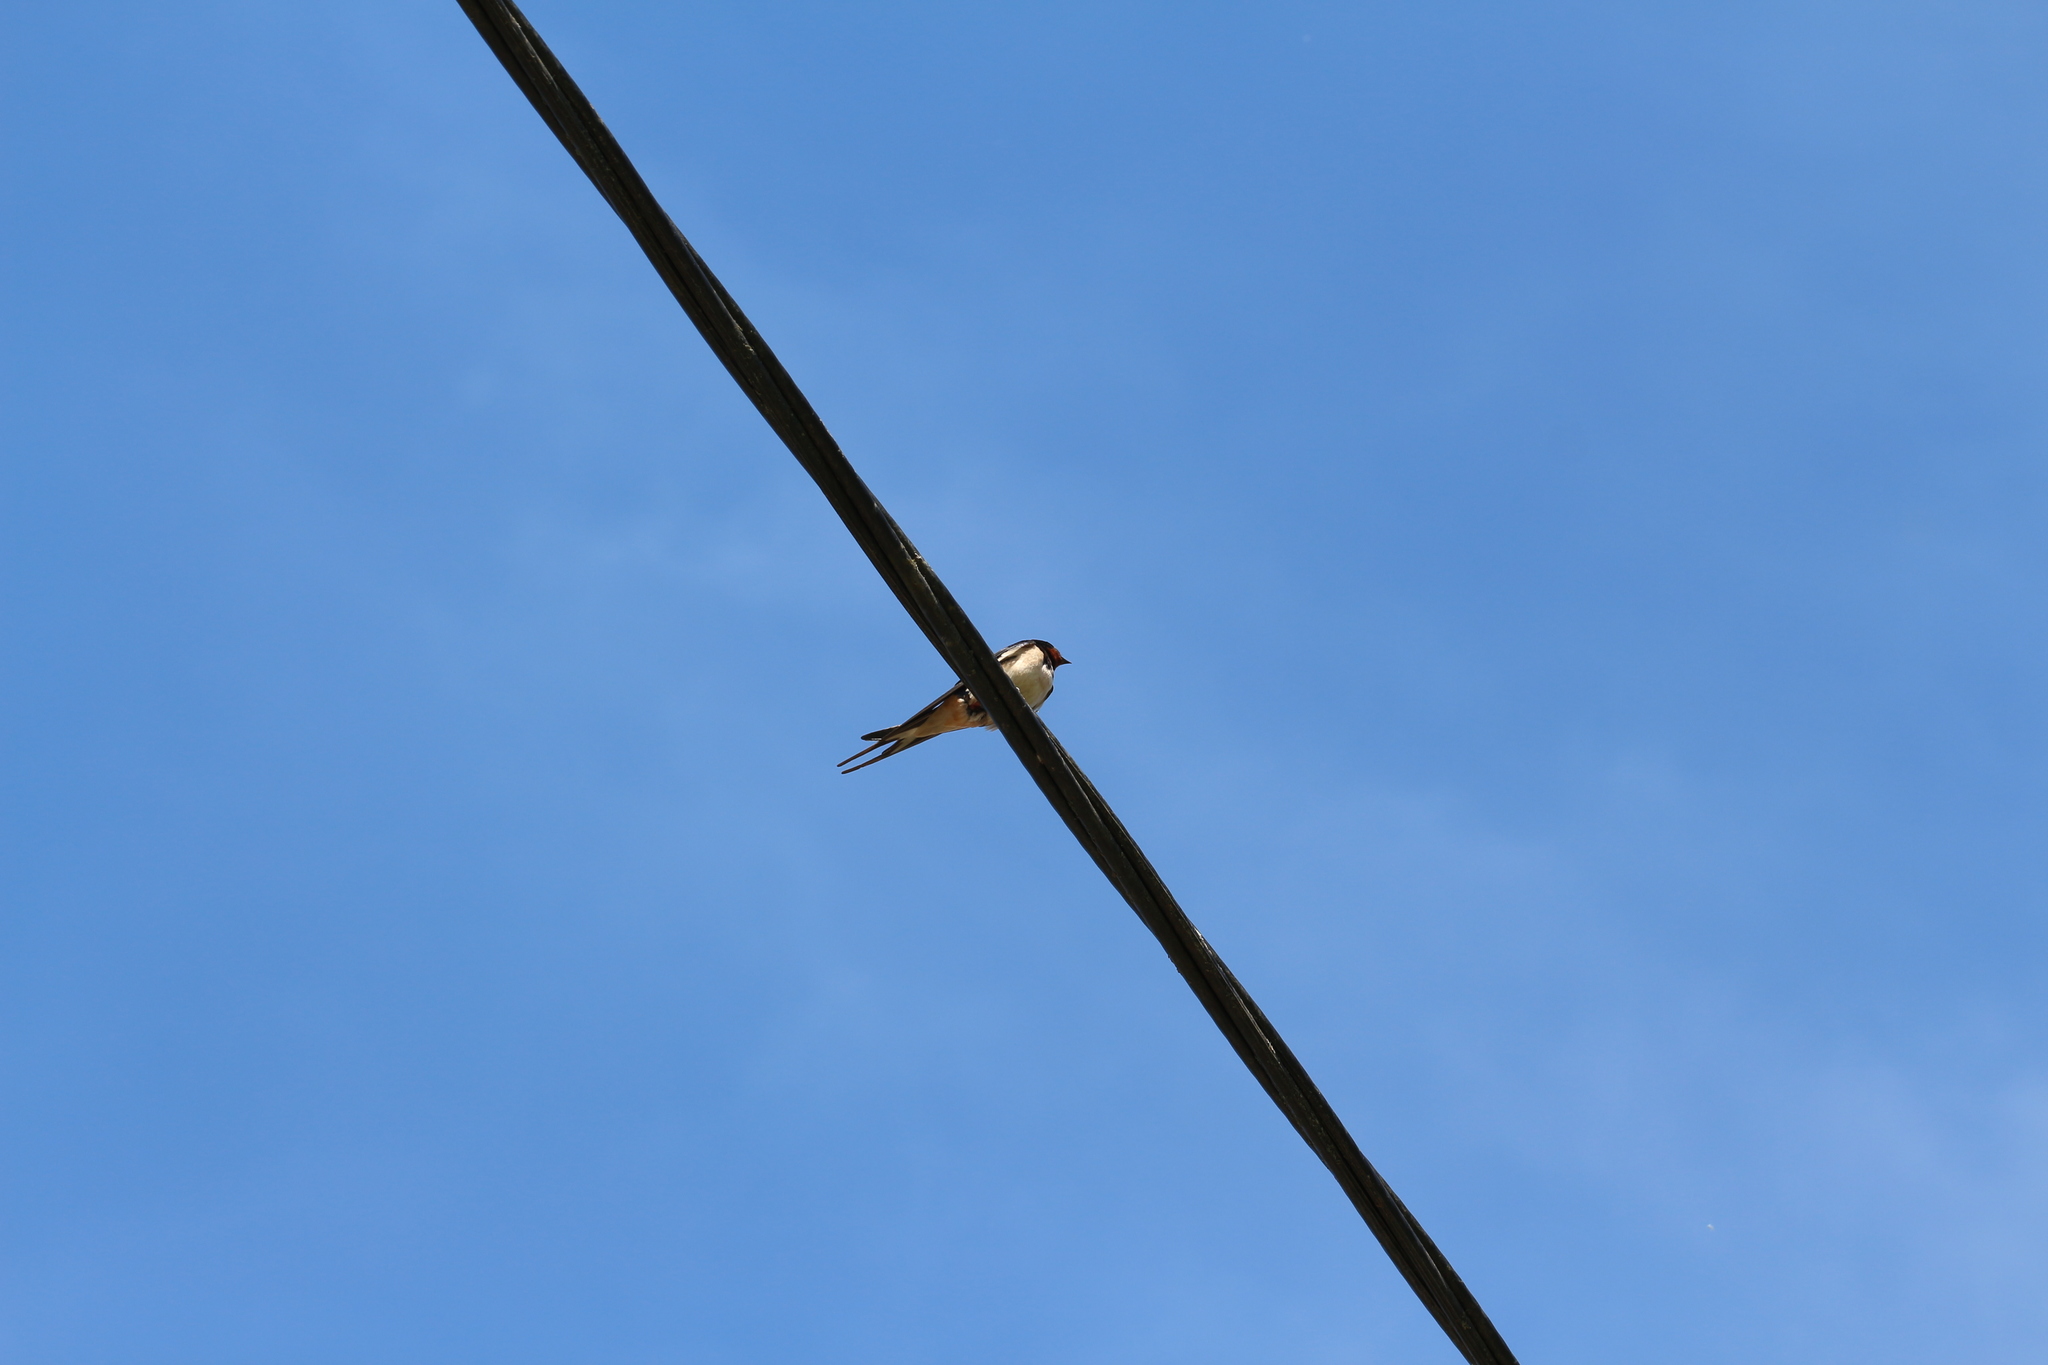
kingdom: Animalia
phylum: Chordata
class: Aves
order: Passeriformes
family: Hirundinidae
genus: Hirundo
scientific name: Hirundo rustica
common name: Barn swallow
